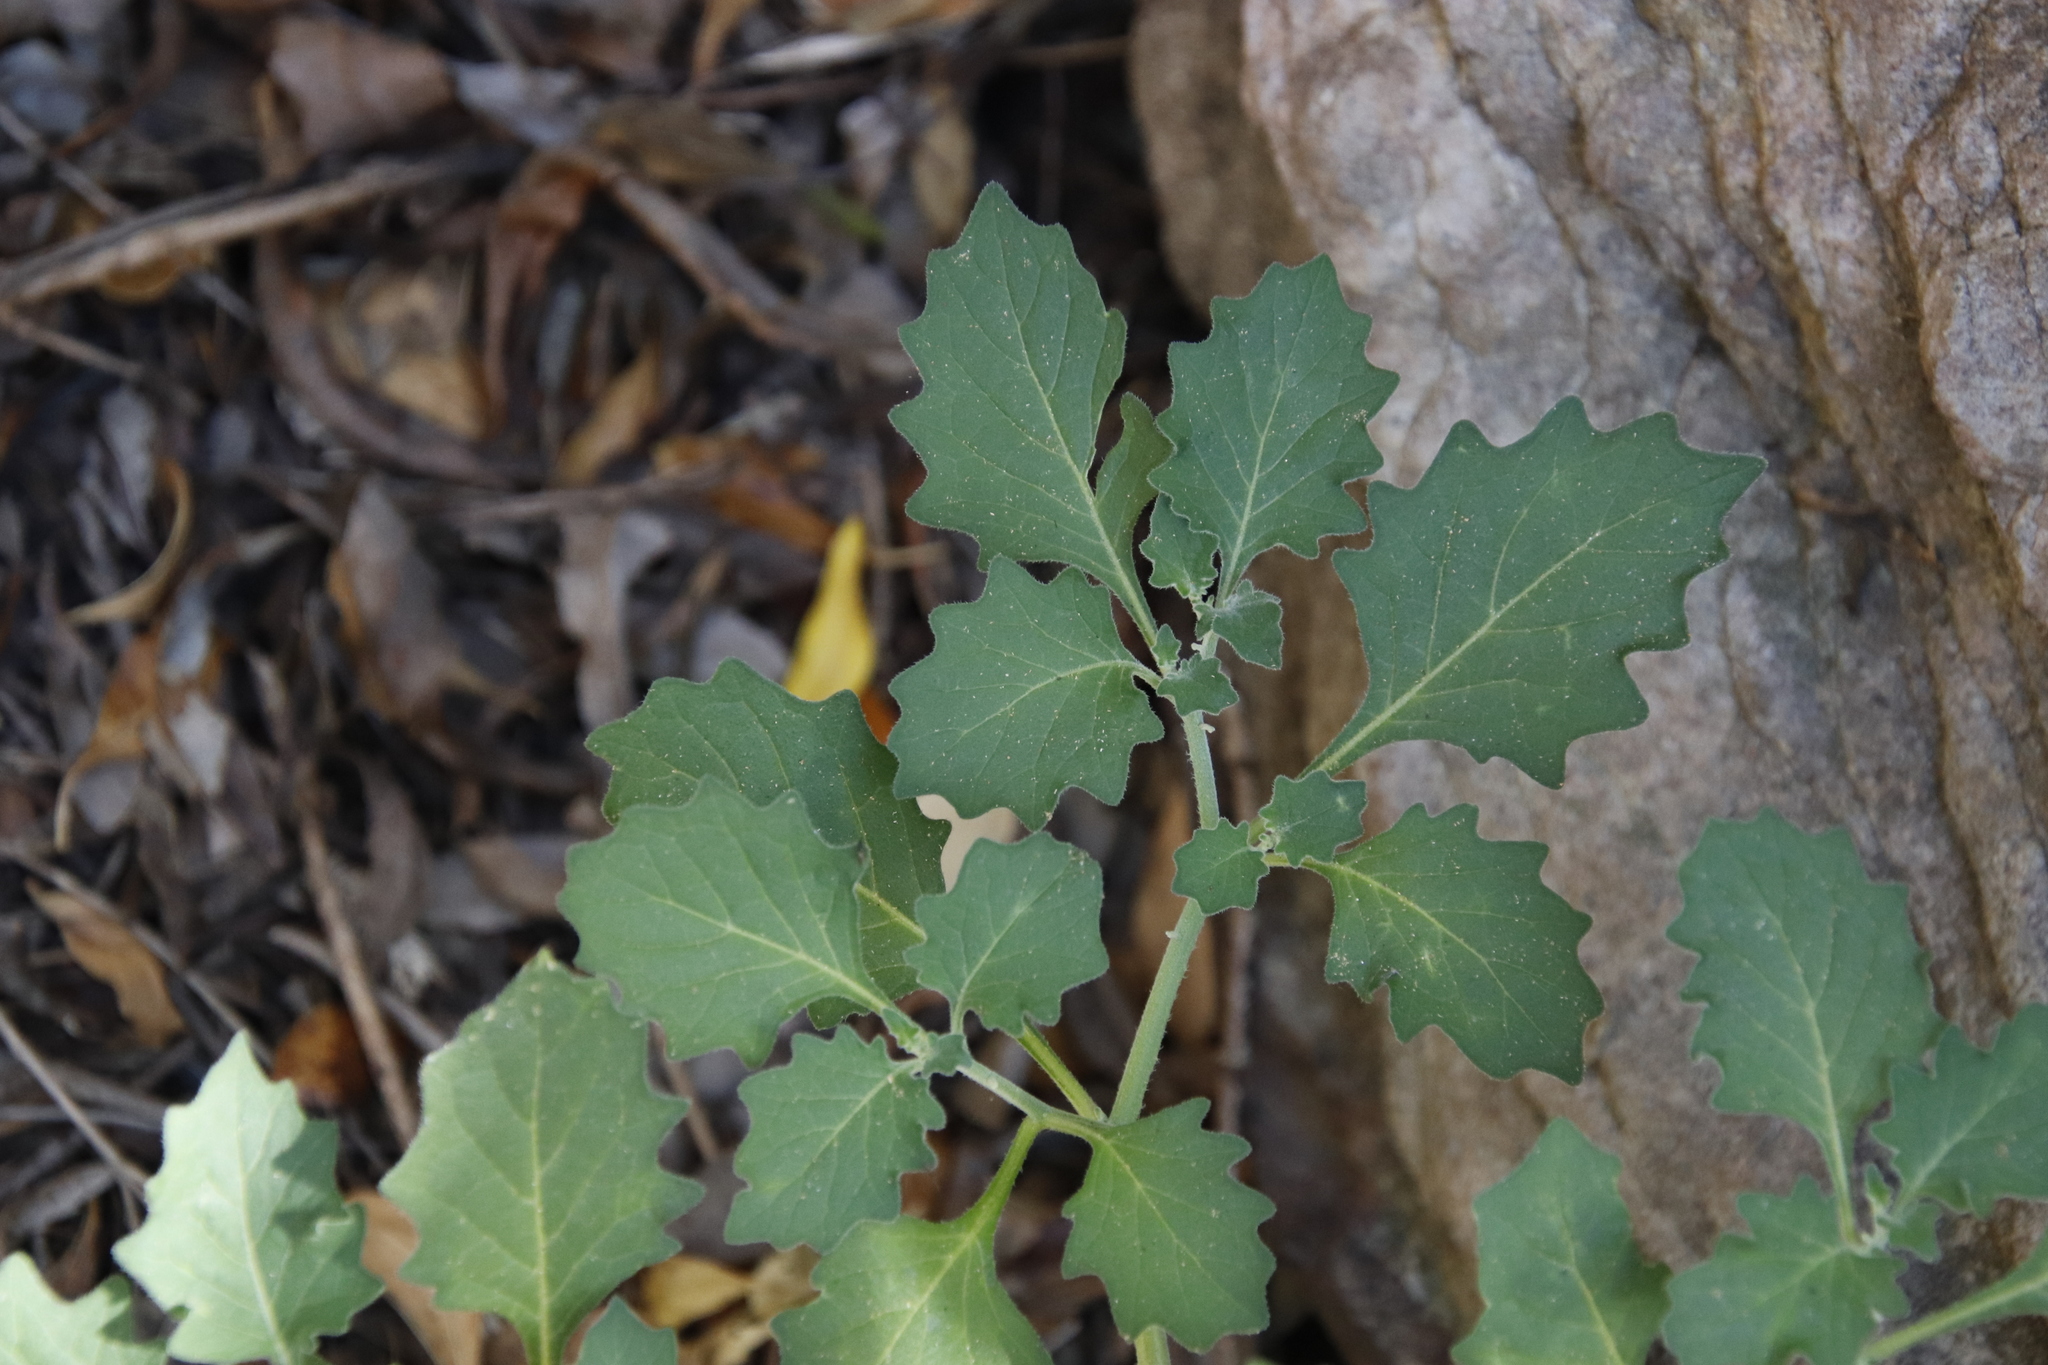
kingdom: Plantae
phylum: Tracheophyta
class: Magnoliopsida
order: Solanales
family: Solanaceae
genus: Solanum
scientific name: Solanum retroflexum
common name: Wonderberry
